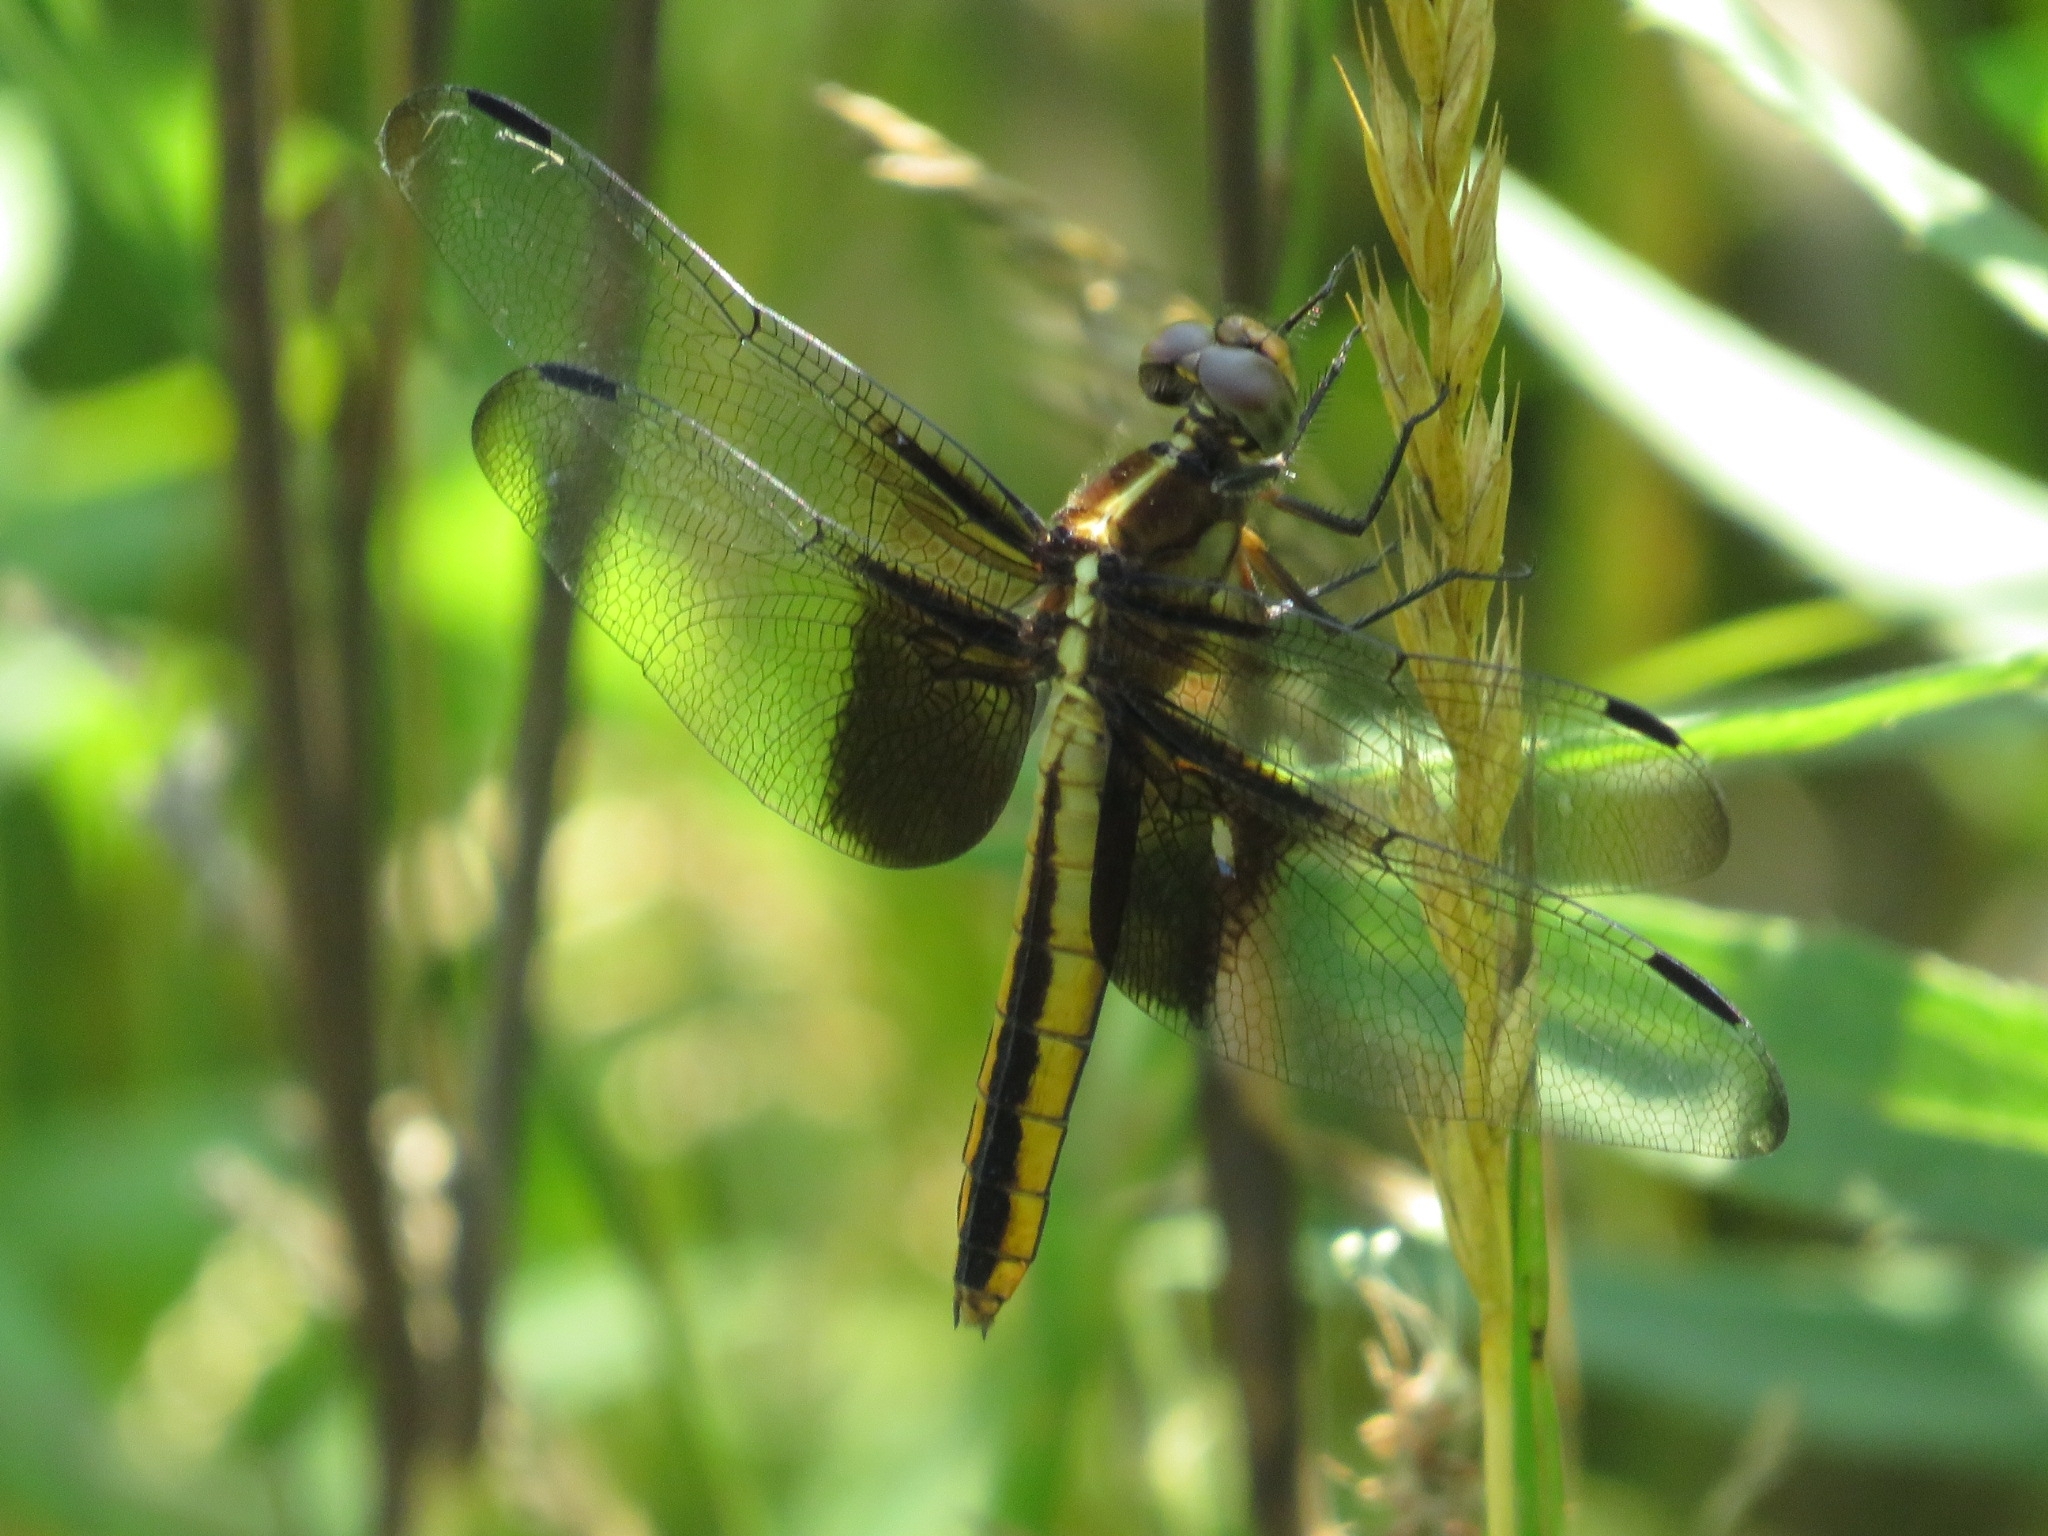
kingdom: Animalia
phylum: Arthropoda
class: Insecta
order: Odonata
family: Libellulidae
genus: Libellula
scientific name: Libellula luctuosa
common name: Widow skimmer
